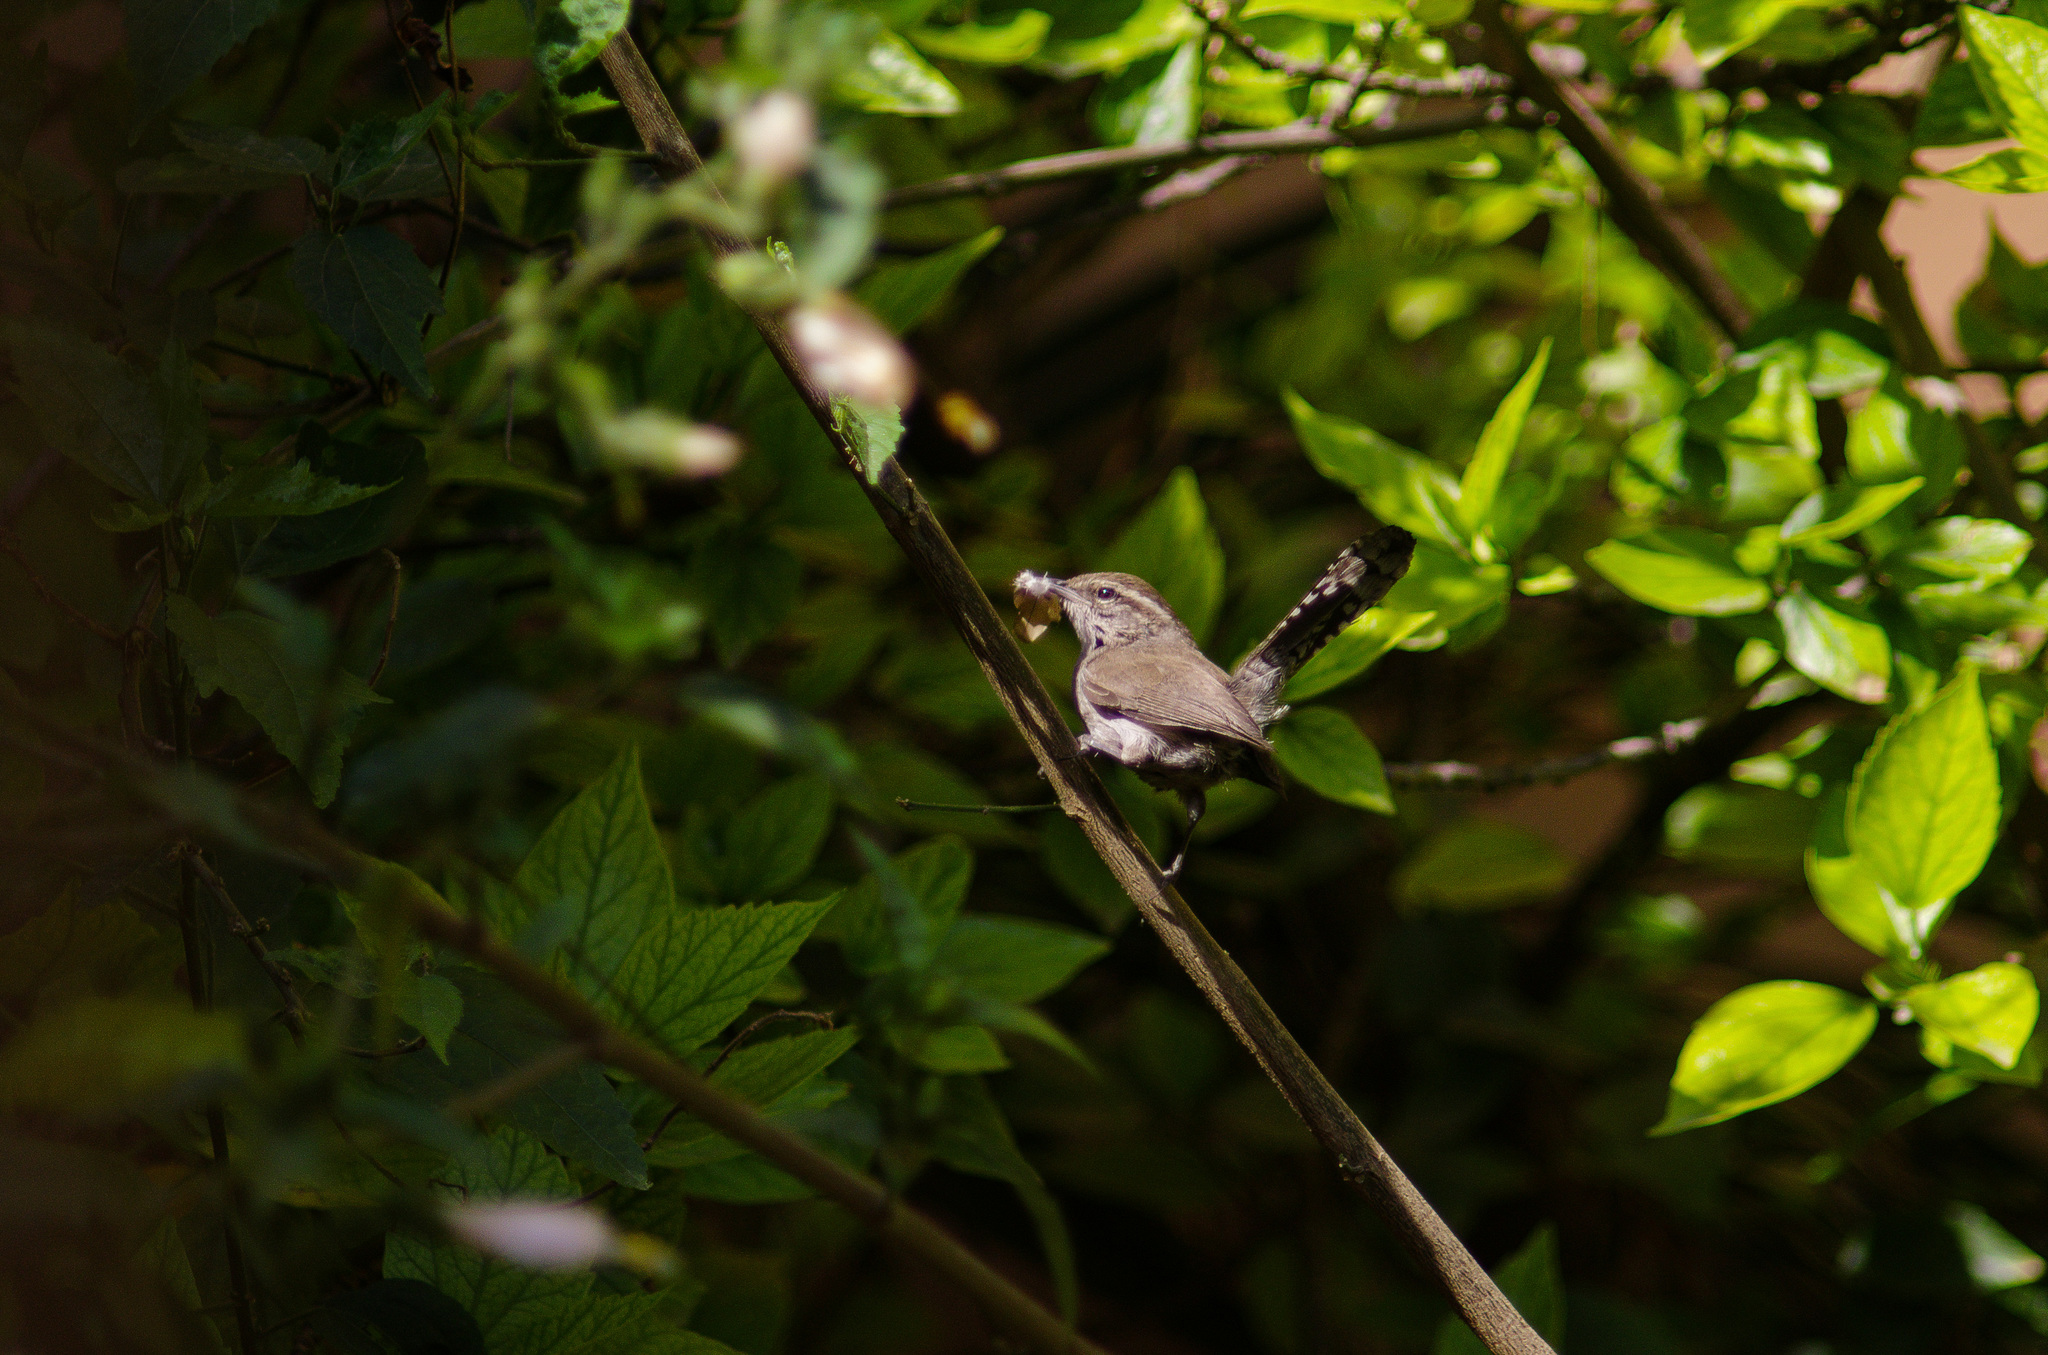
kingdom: Animalia
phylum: Chordata
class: Aves
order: Passeriformes
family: Troglodytidae
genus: Thryomanes
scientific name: Thryomanes bewickii
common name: Bewick's wren
